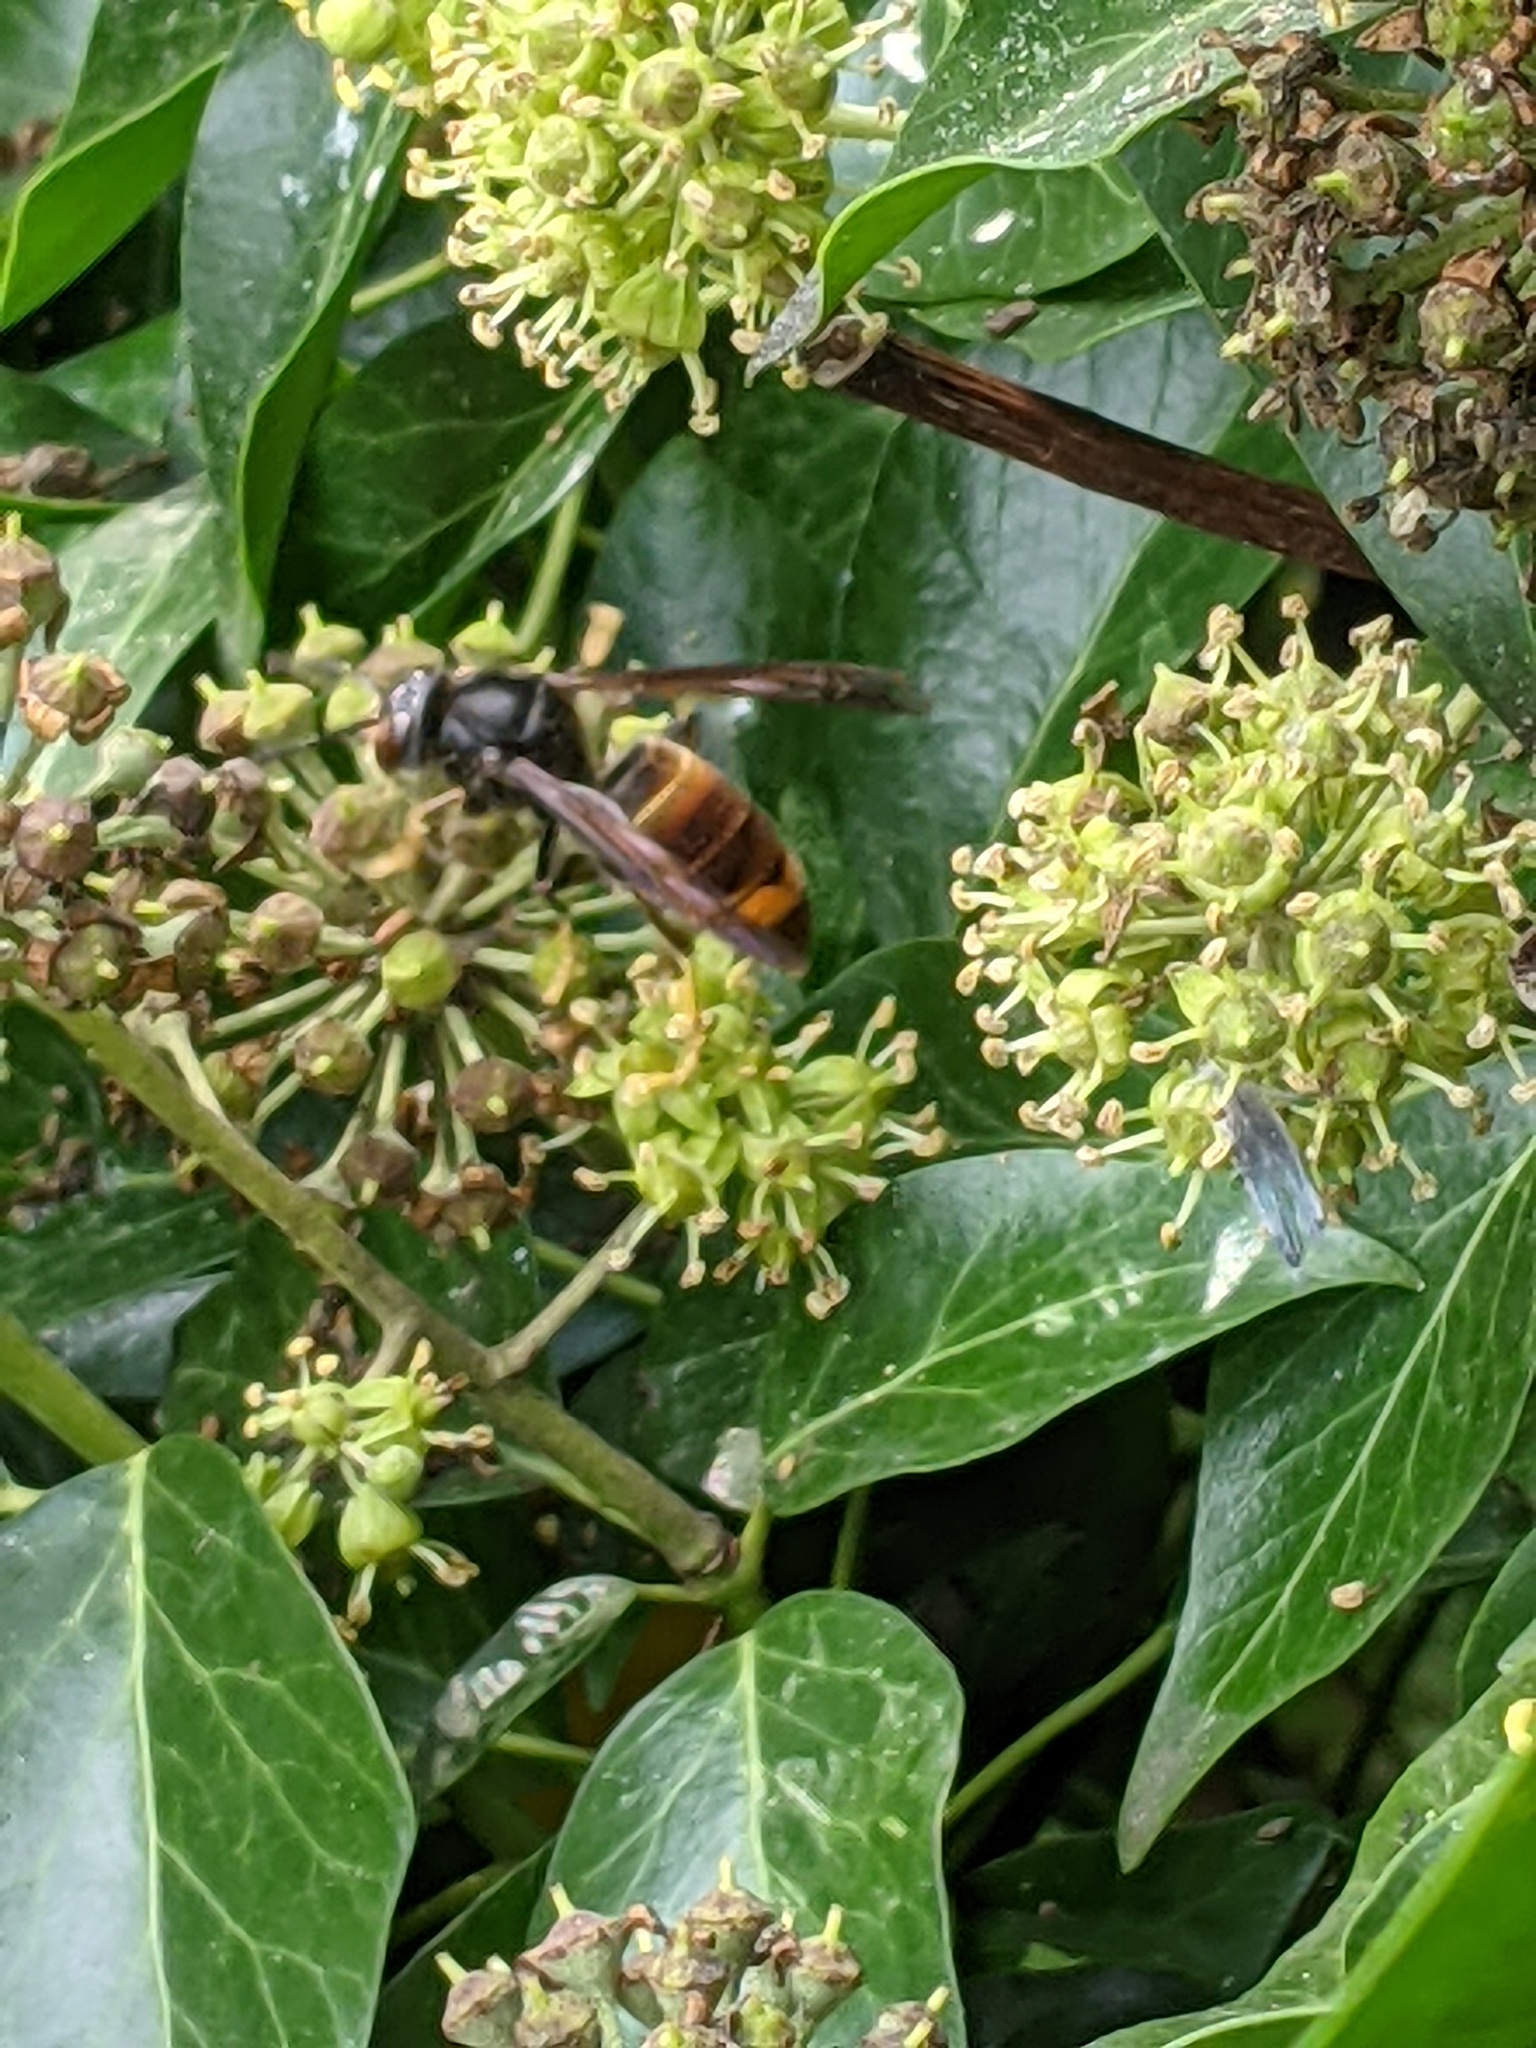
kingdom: Animalia
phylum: Arthropoda
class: Insecta
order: Hymenoptera
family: Vespidae
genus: Vespa
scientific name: Vespa velutina
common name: Asian hornet
